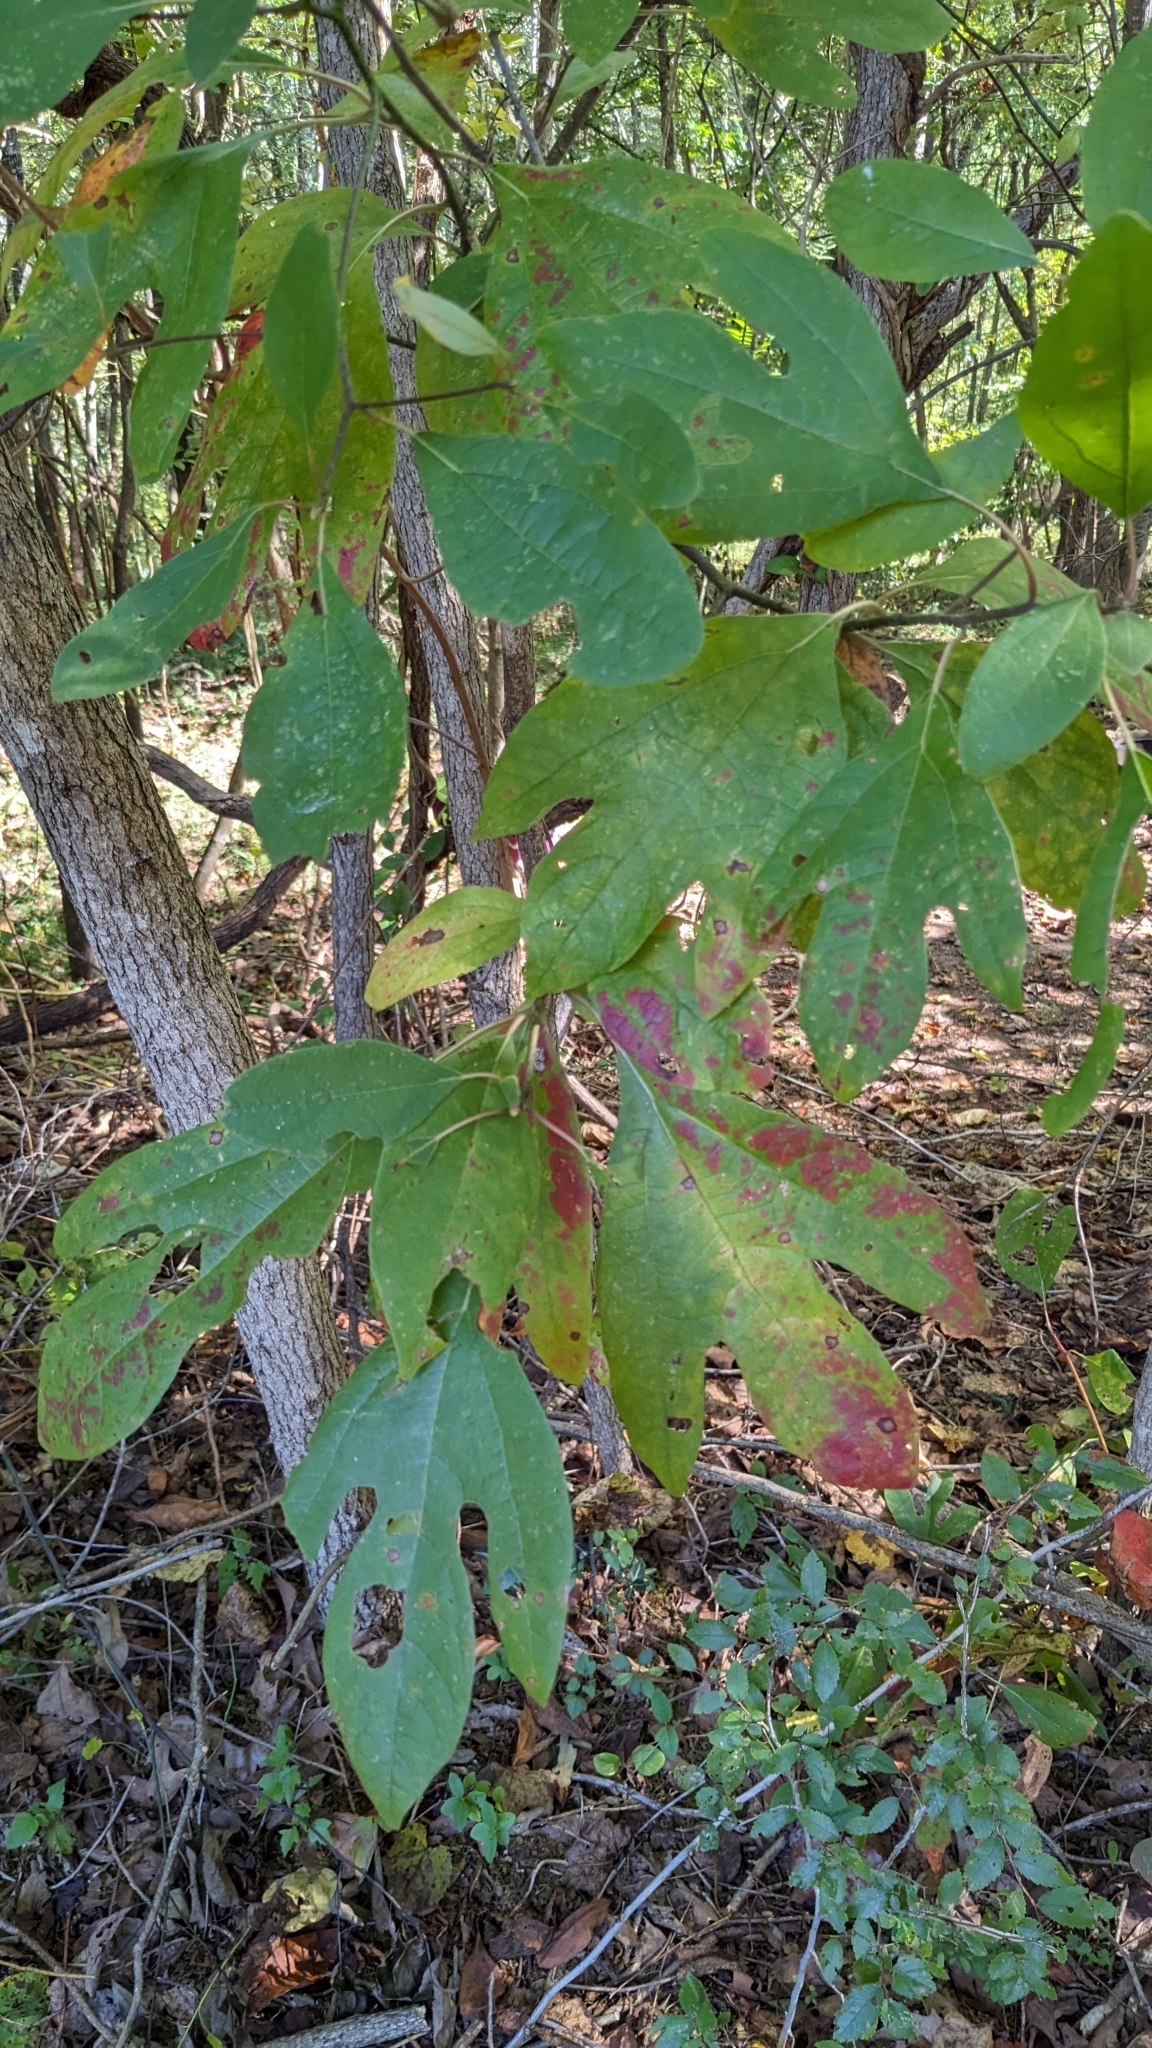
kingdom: Plantae
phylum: Tracheophyta
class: Magnoliopsida
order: Laurales
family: Lauraceae
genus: Sassafras
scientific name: Sassafras albidum
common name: Sassafras
